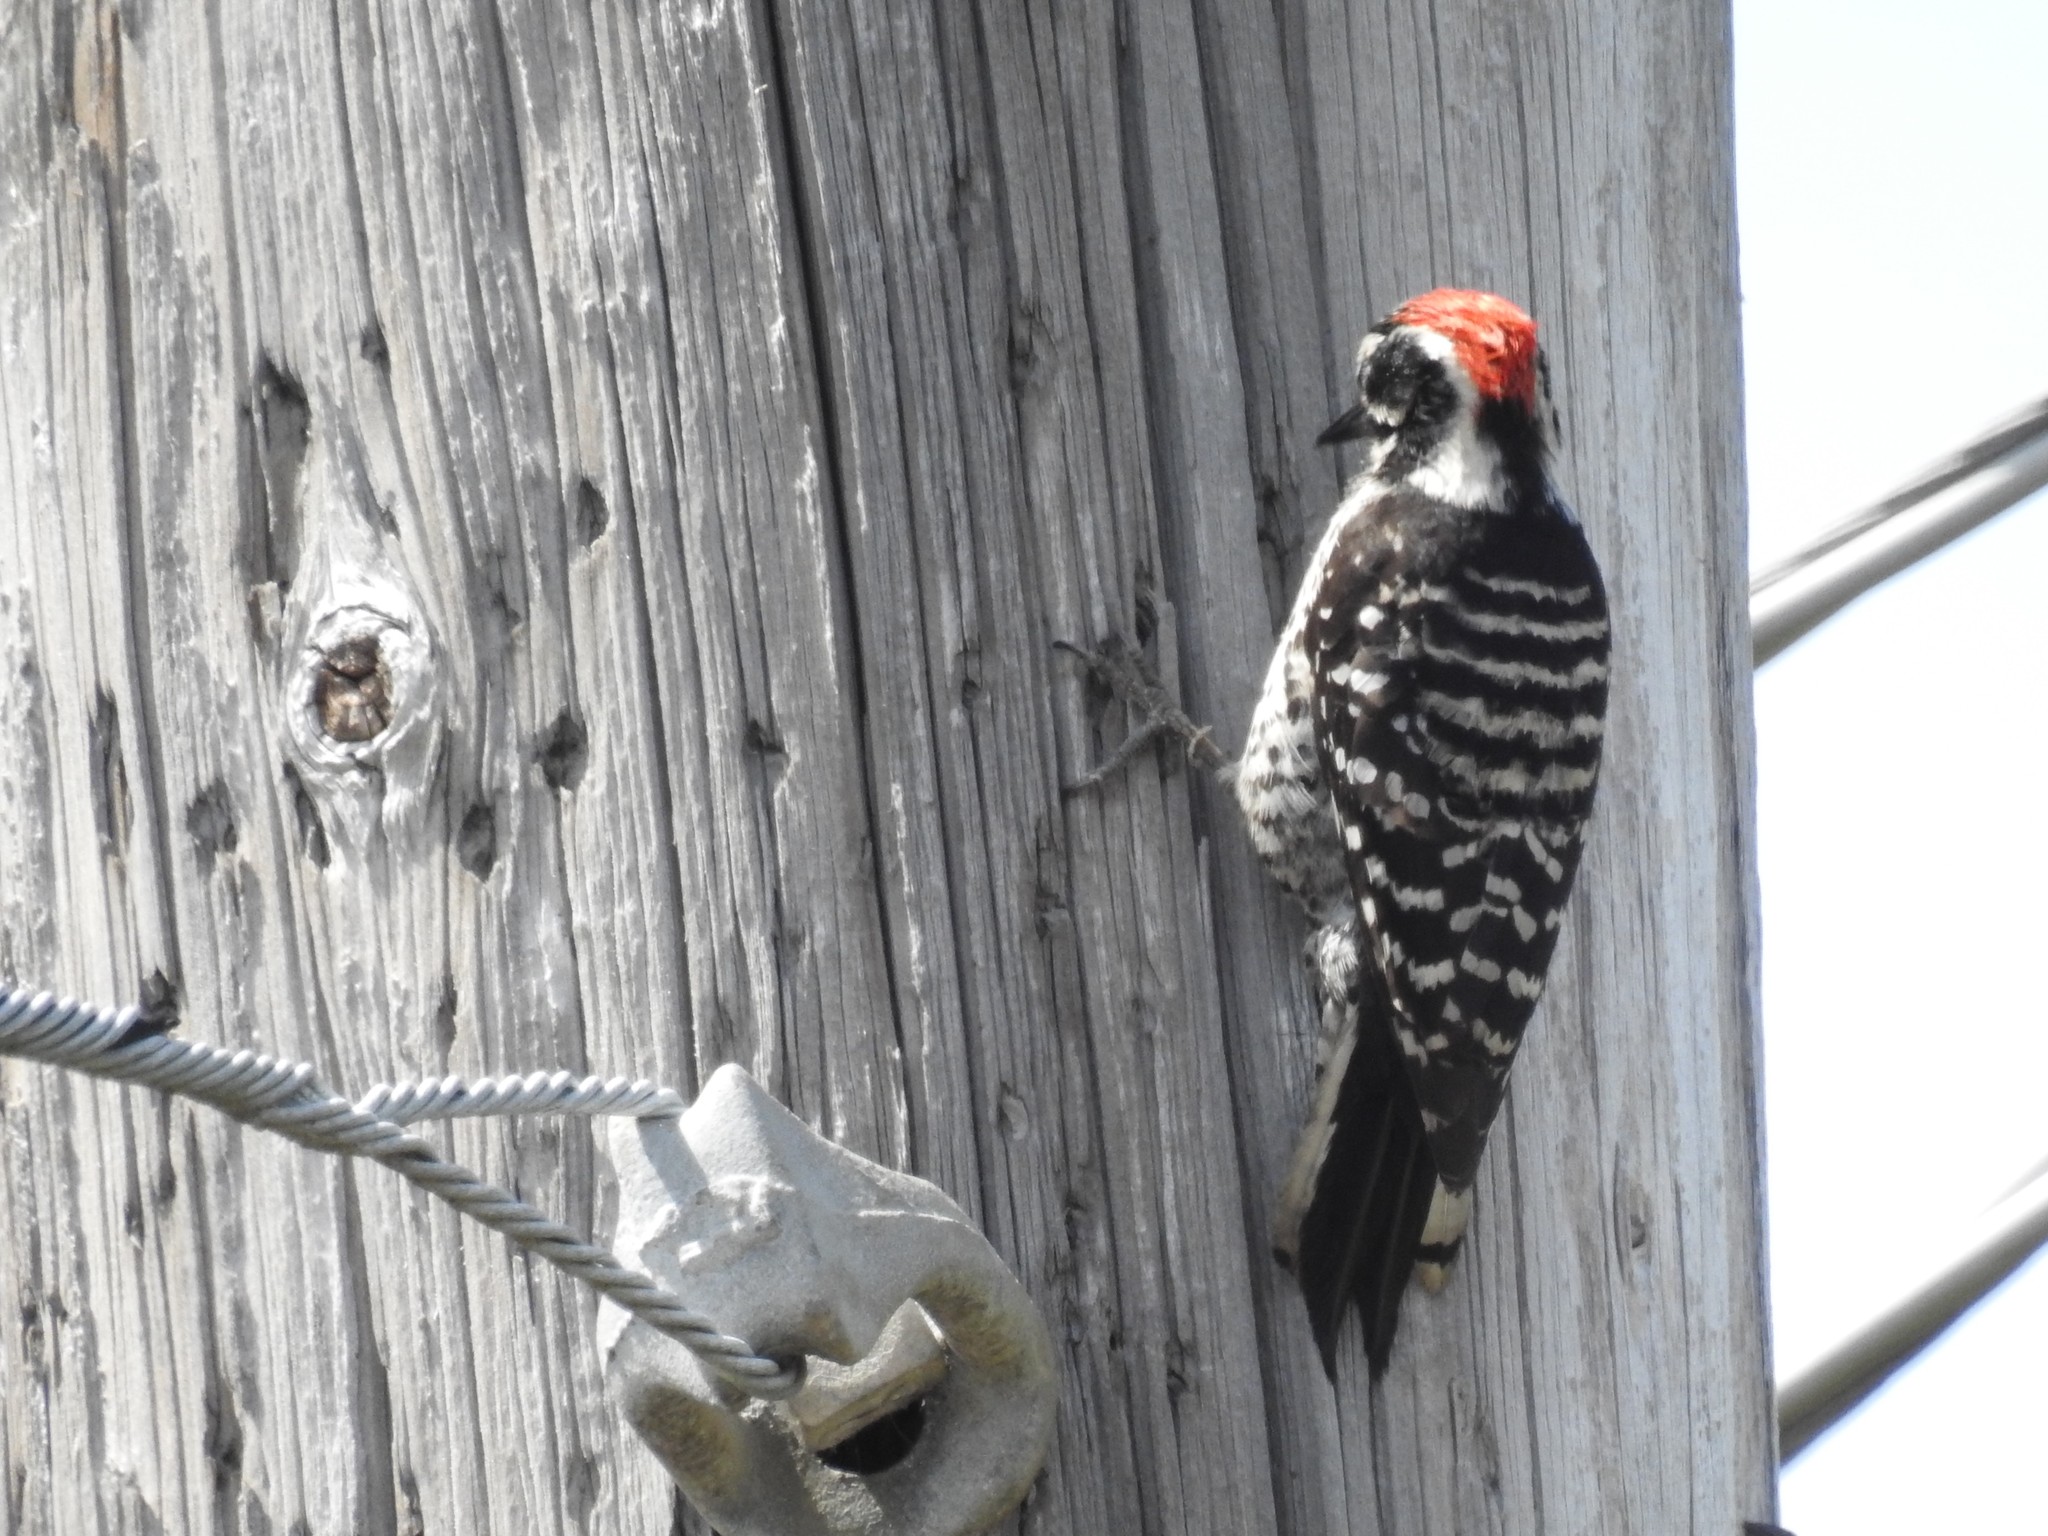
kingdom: Animalia
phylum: Chordata
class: Aves
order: Piciformes
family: Picidae
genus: Dryobates
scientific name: Dryobates nuttallii
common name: Nuttall's woodpecker
